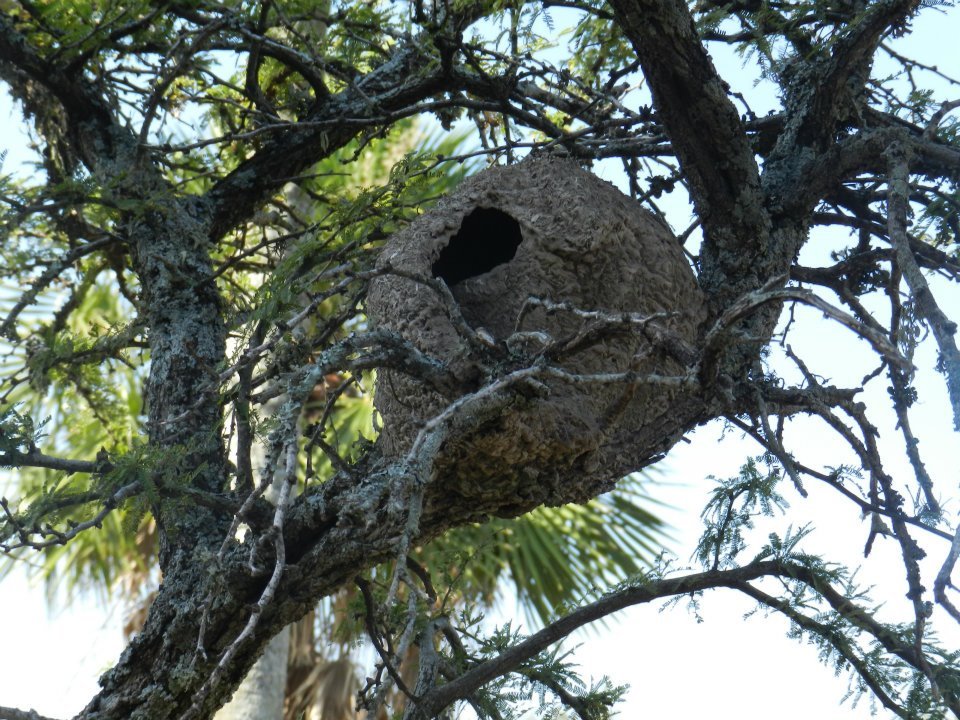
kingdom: Animalia
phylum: Chordata
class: Aves
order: Passeriformes
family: Furnariidae
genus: Furnarius
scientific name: Furnarius rufus
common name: Rufous hornero
